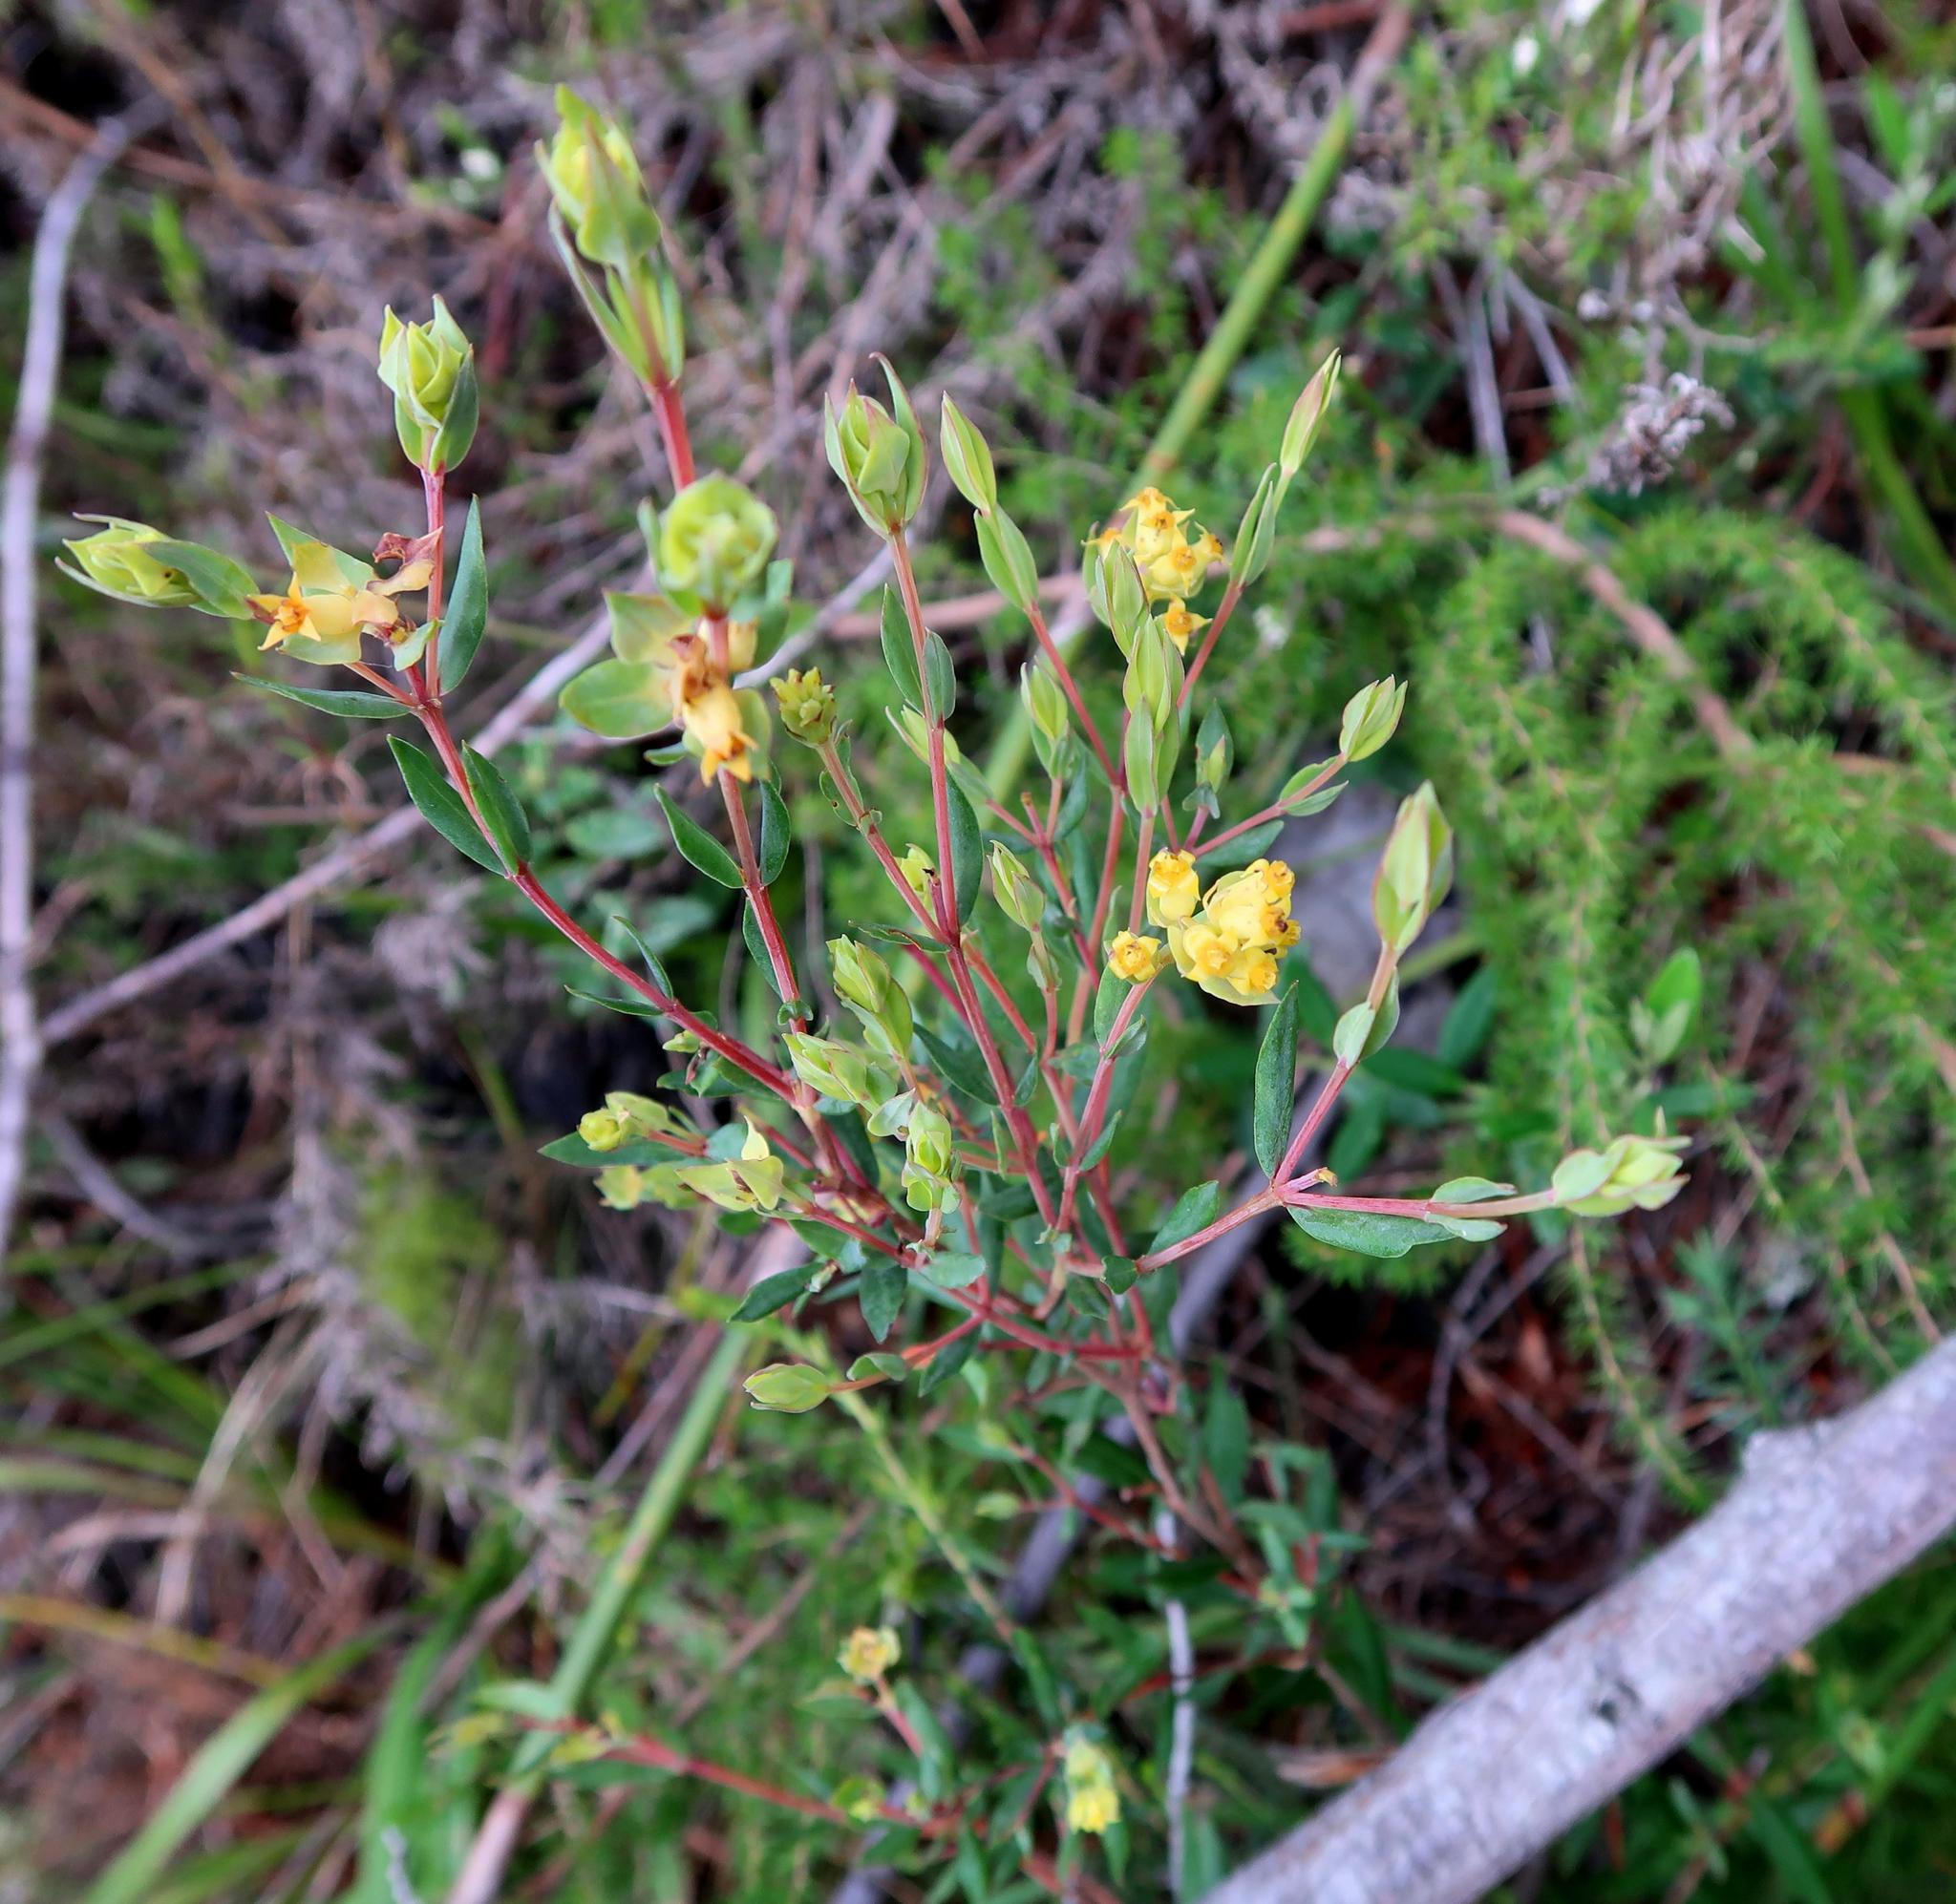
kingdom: Plantae
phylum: Tracheophyta
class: Magnoliopsida
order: Myrtales
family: Penaeaceae
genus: Penaea
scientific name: Penaea acutifolia
